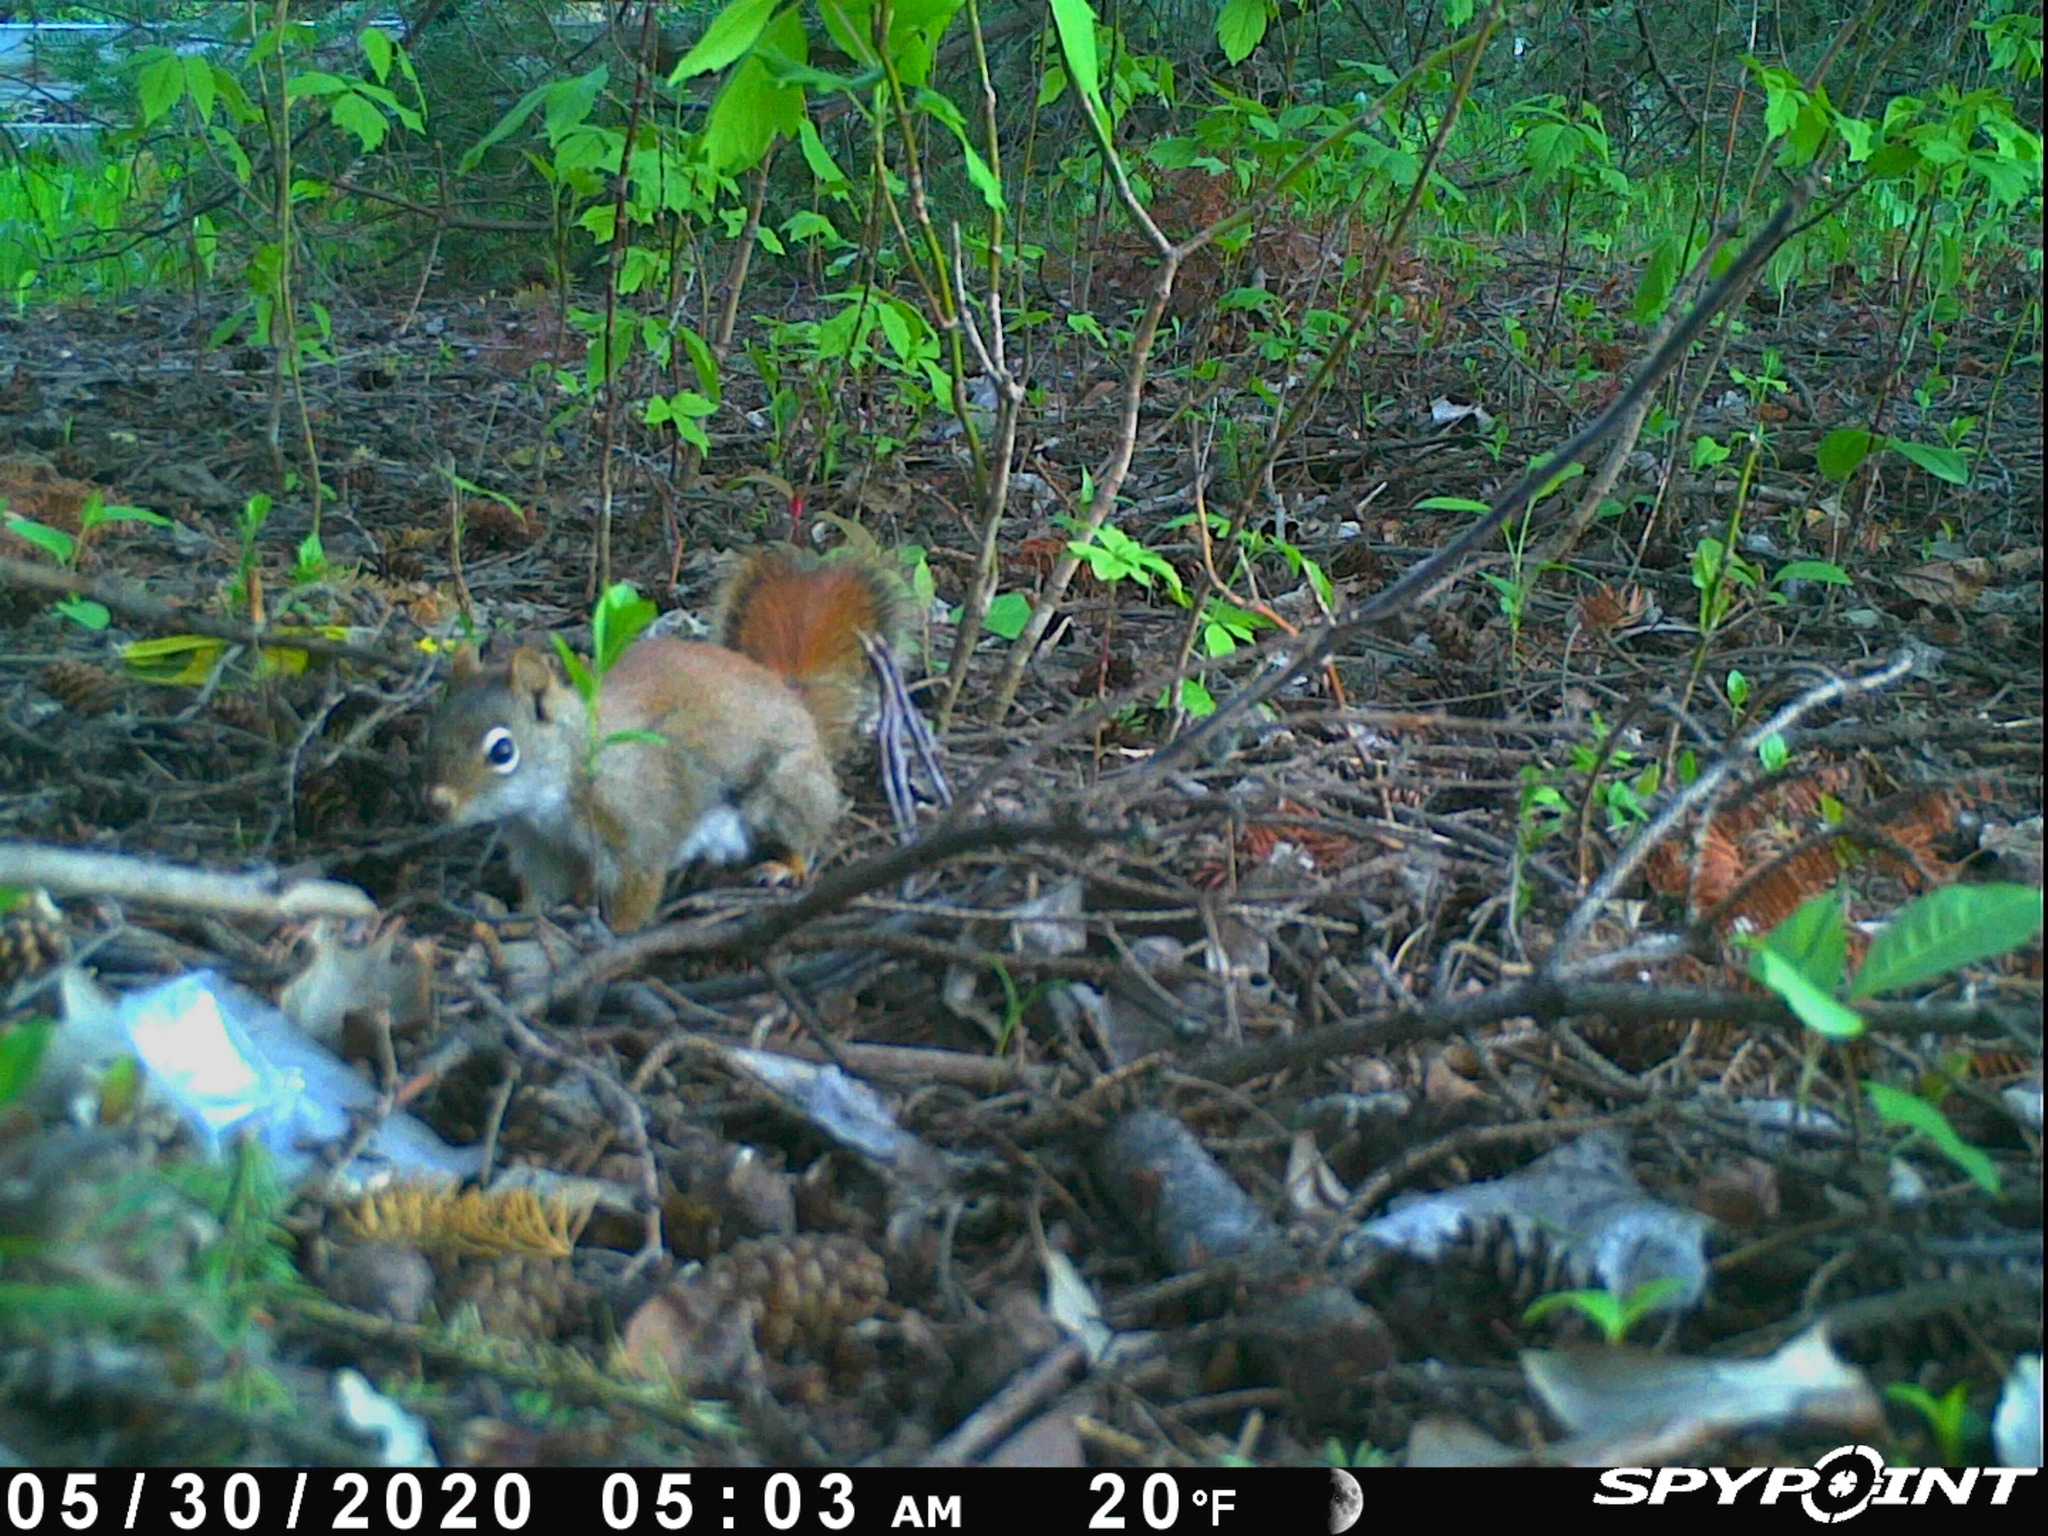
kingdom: Animalia
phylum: Chordata
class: Mammalia
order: Rodentia
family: Sciuridae
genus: Tamiasciurus
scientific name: Tamiasciurus hudsonicus
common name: Red squirrel
